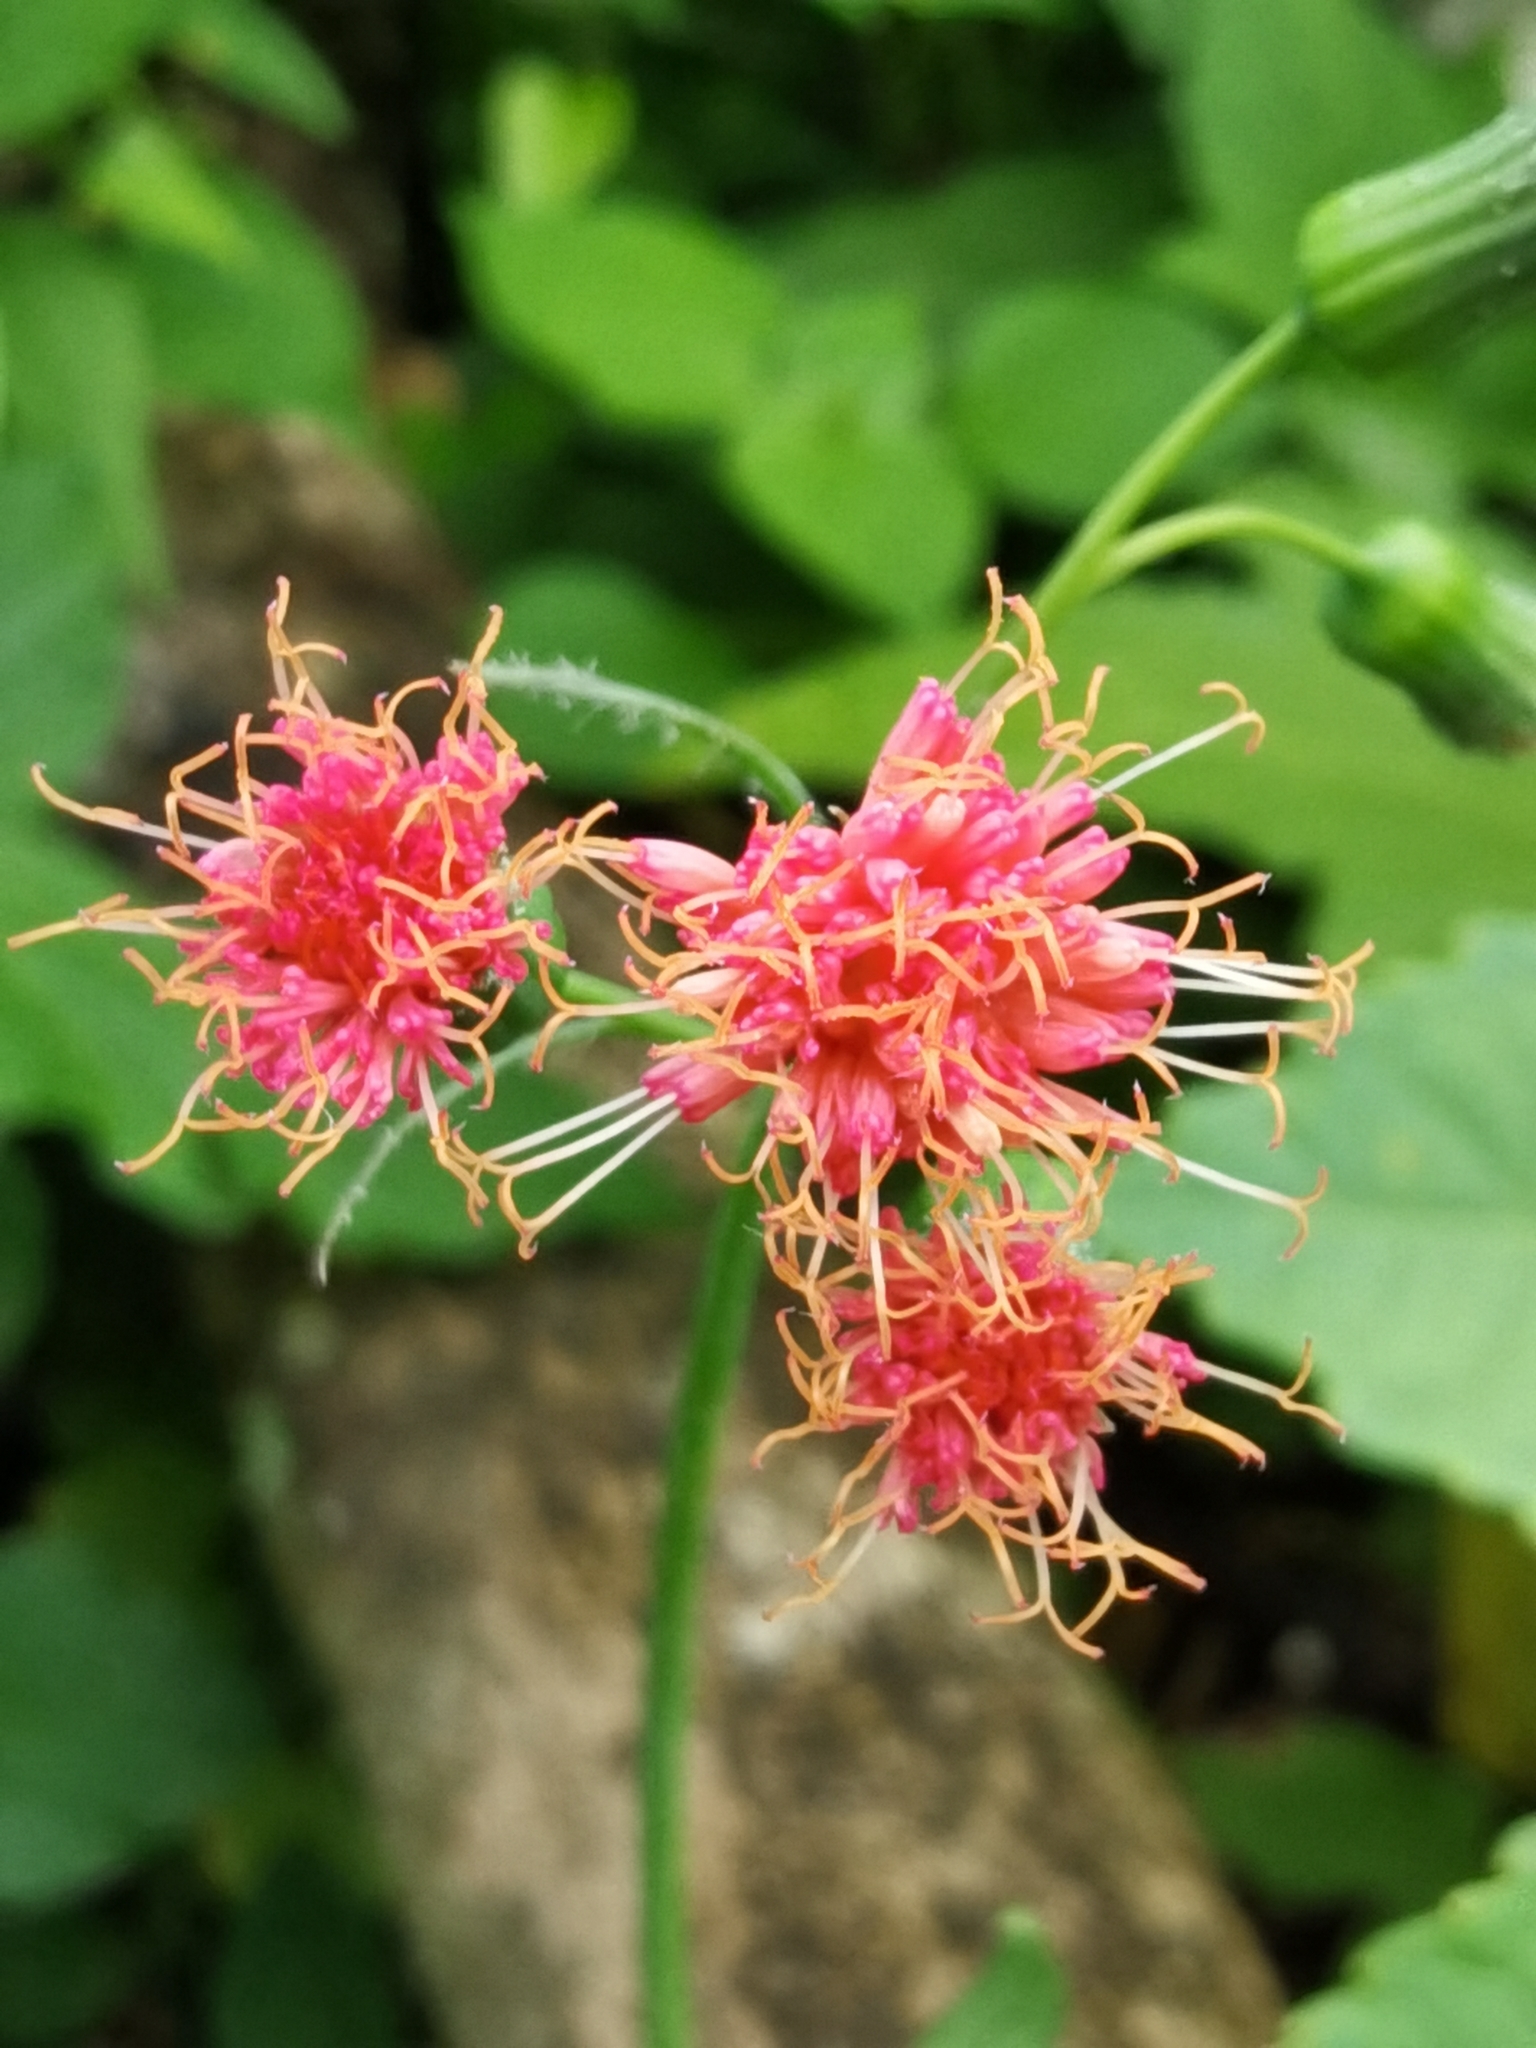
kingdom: Plantae
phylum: Tracheophyta
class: Magnoliopsida
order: Asterales
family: Asteraceae
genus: Emilia
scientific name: Emilia fosbergii
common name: Florida tasselflower
